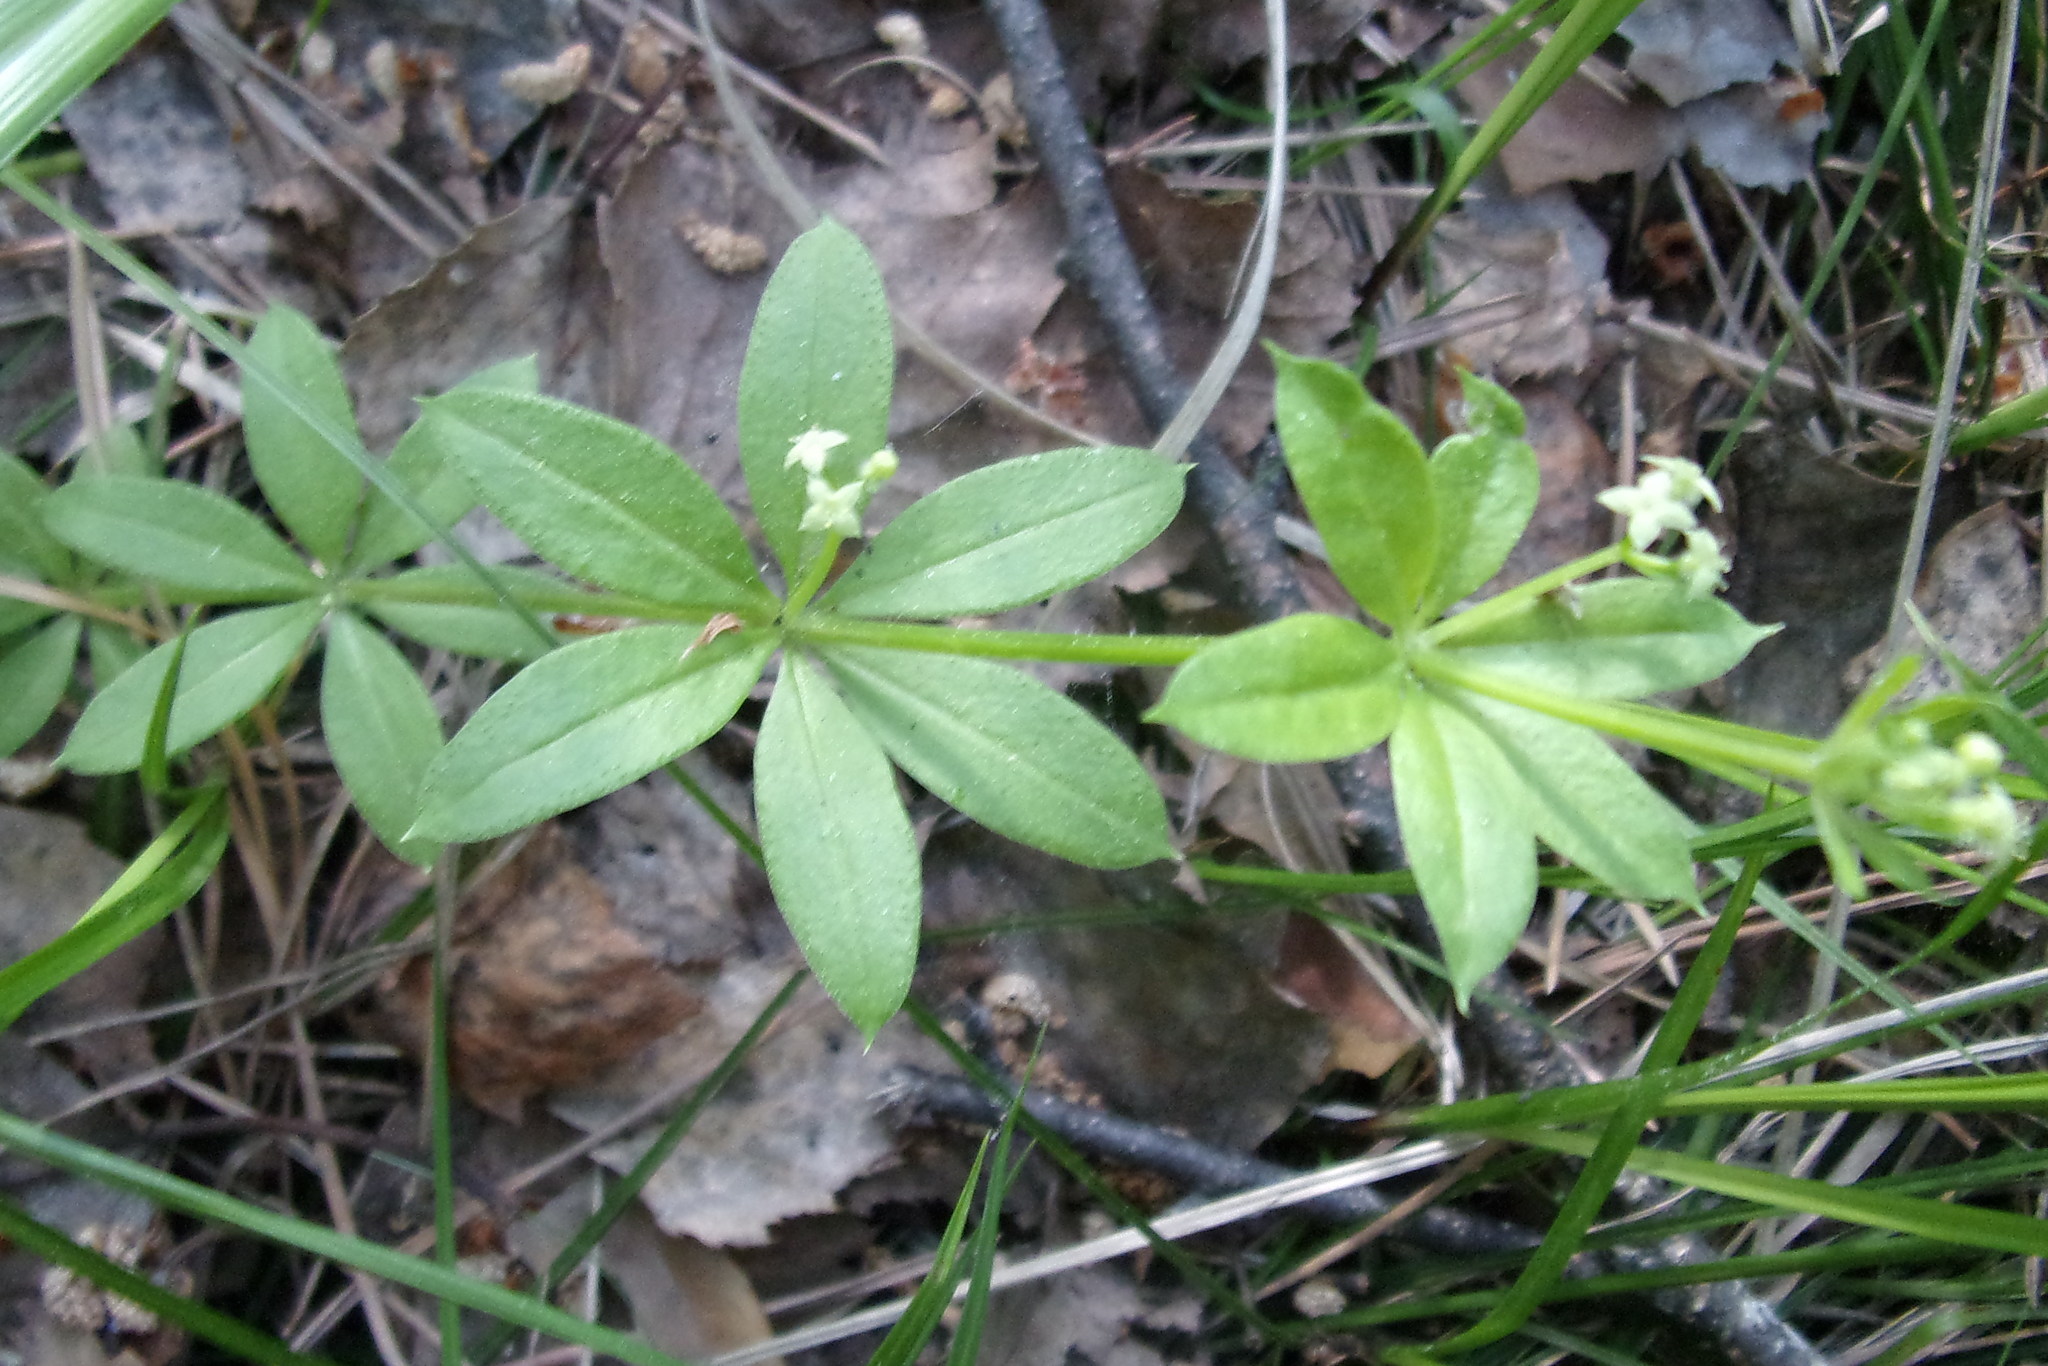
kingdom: Plantae
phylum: Tracheophyta
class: Magnoliopsida
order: Gentianales
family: Rubiaceae
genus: Galium
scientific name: Galium triflorum
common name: Fragrant bedstraw
